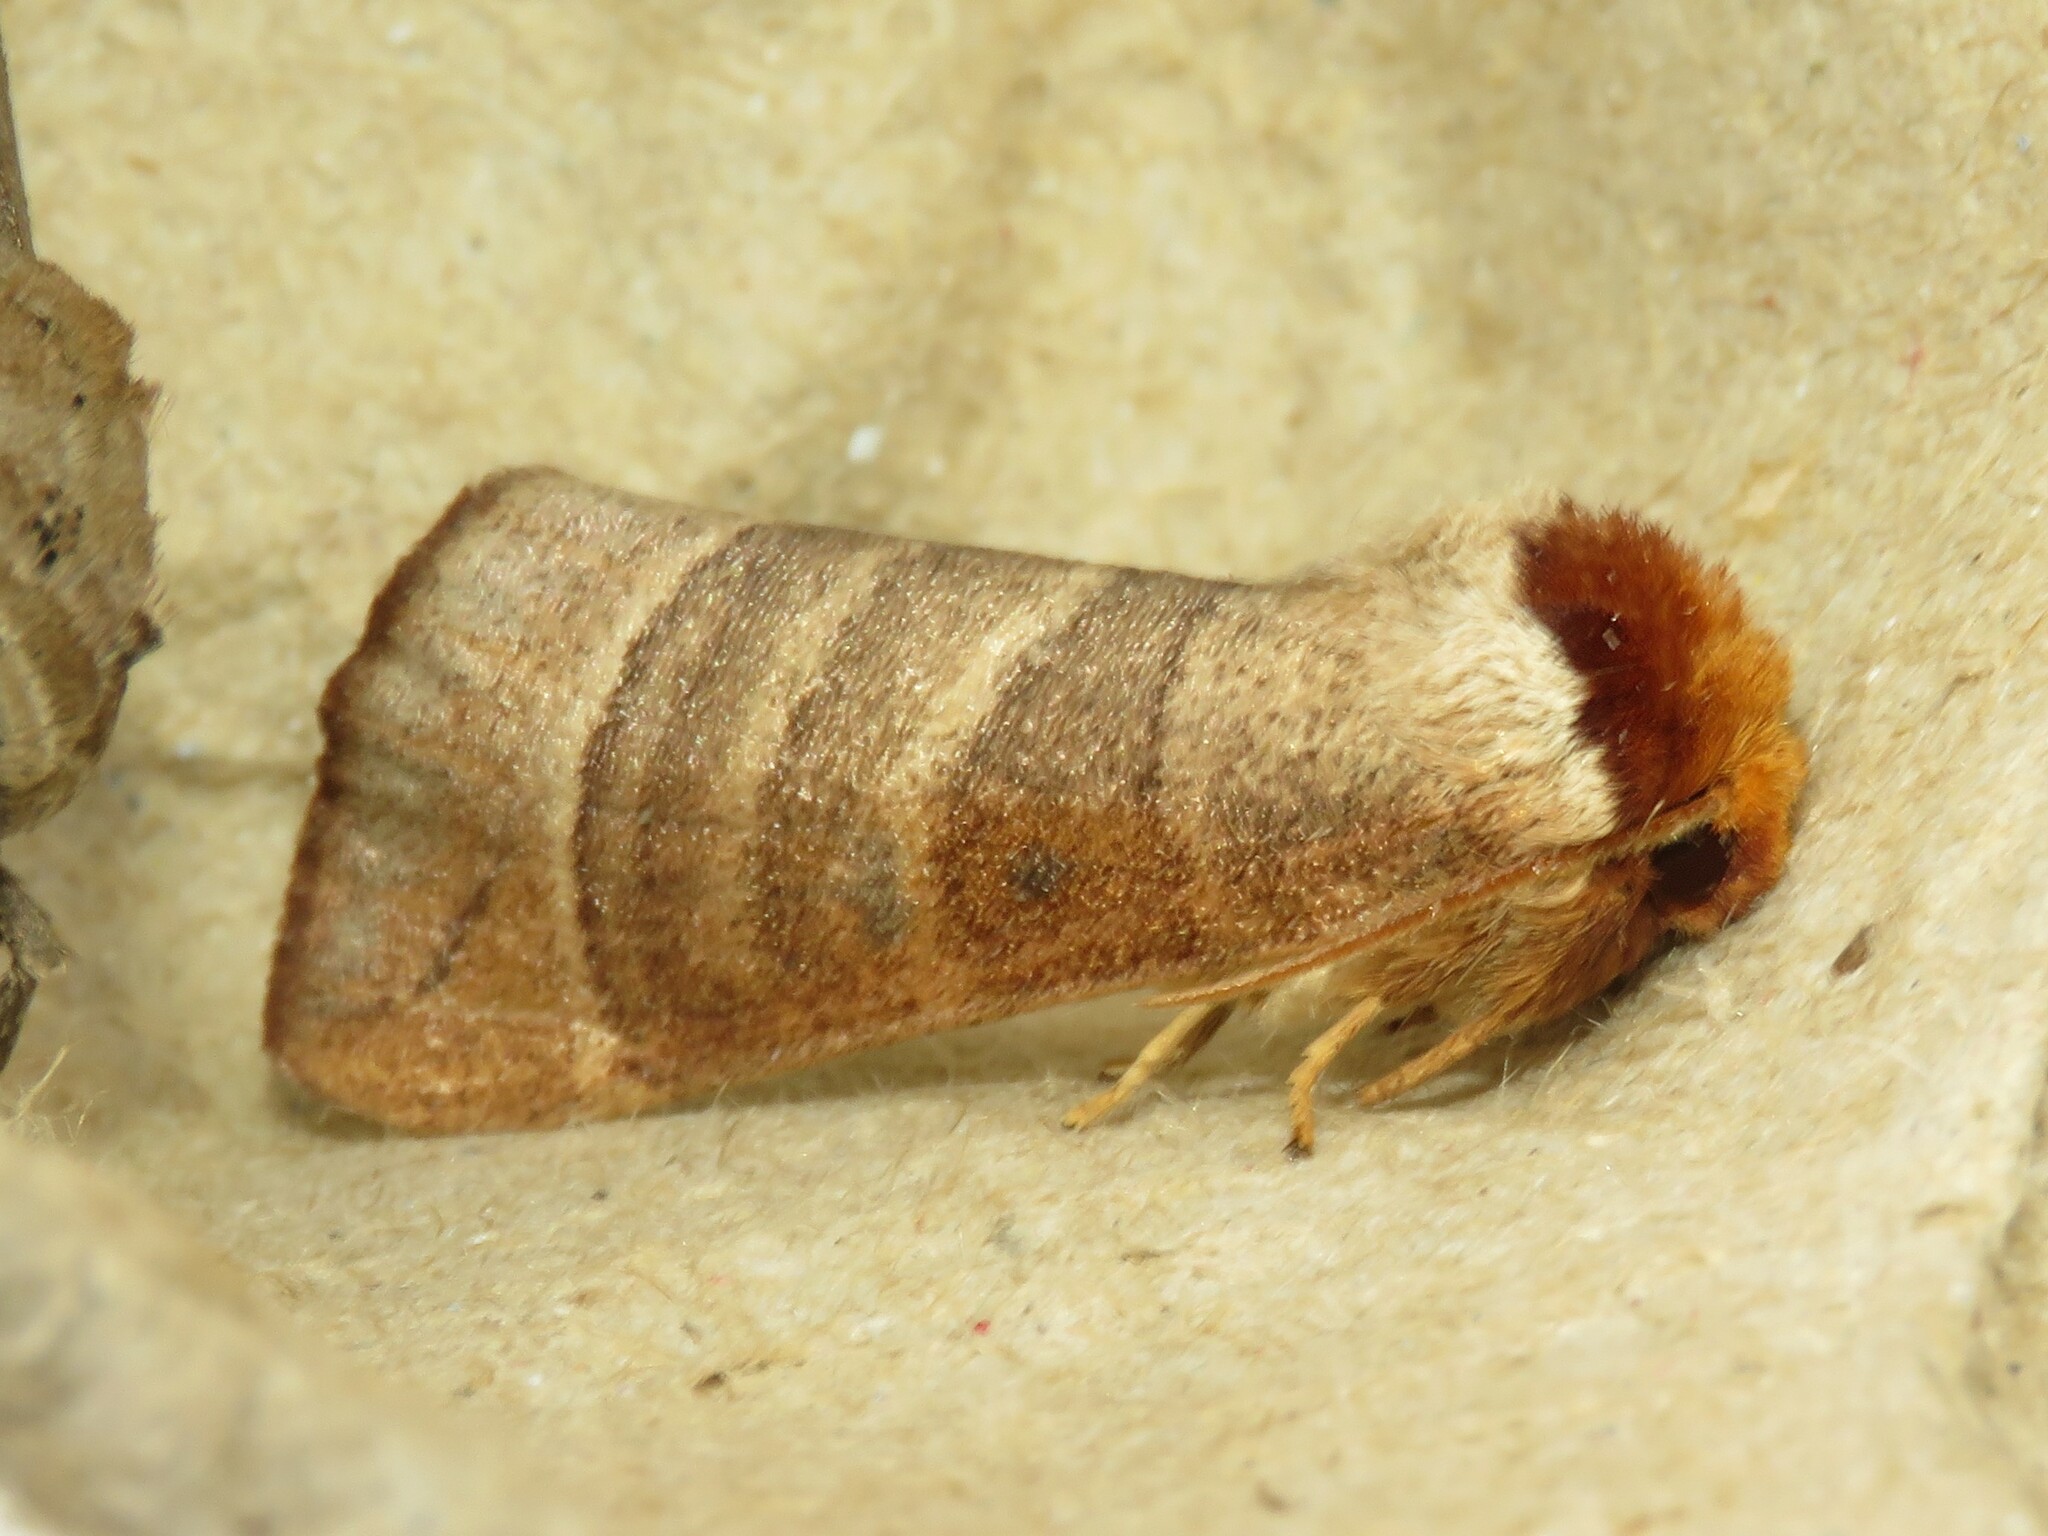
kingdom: Animalia
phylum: Arthropoda
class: Insecta
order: Lepidoptera
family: Notodontidae
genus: Datana
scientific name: Datana integerrima
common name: Walnut caterpillar
